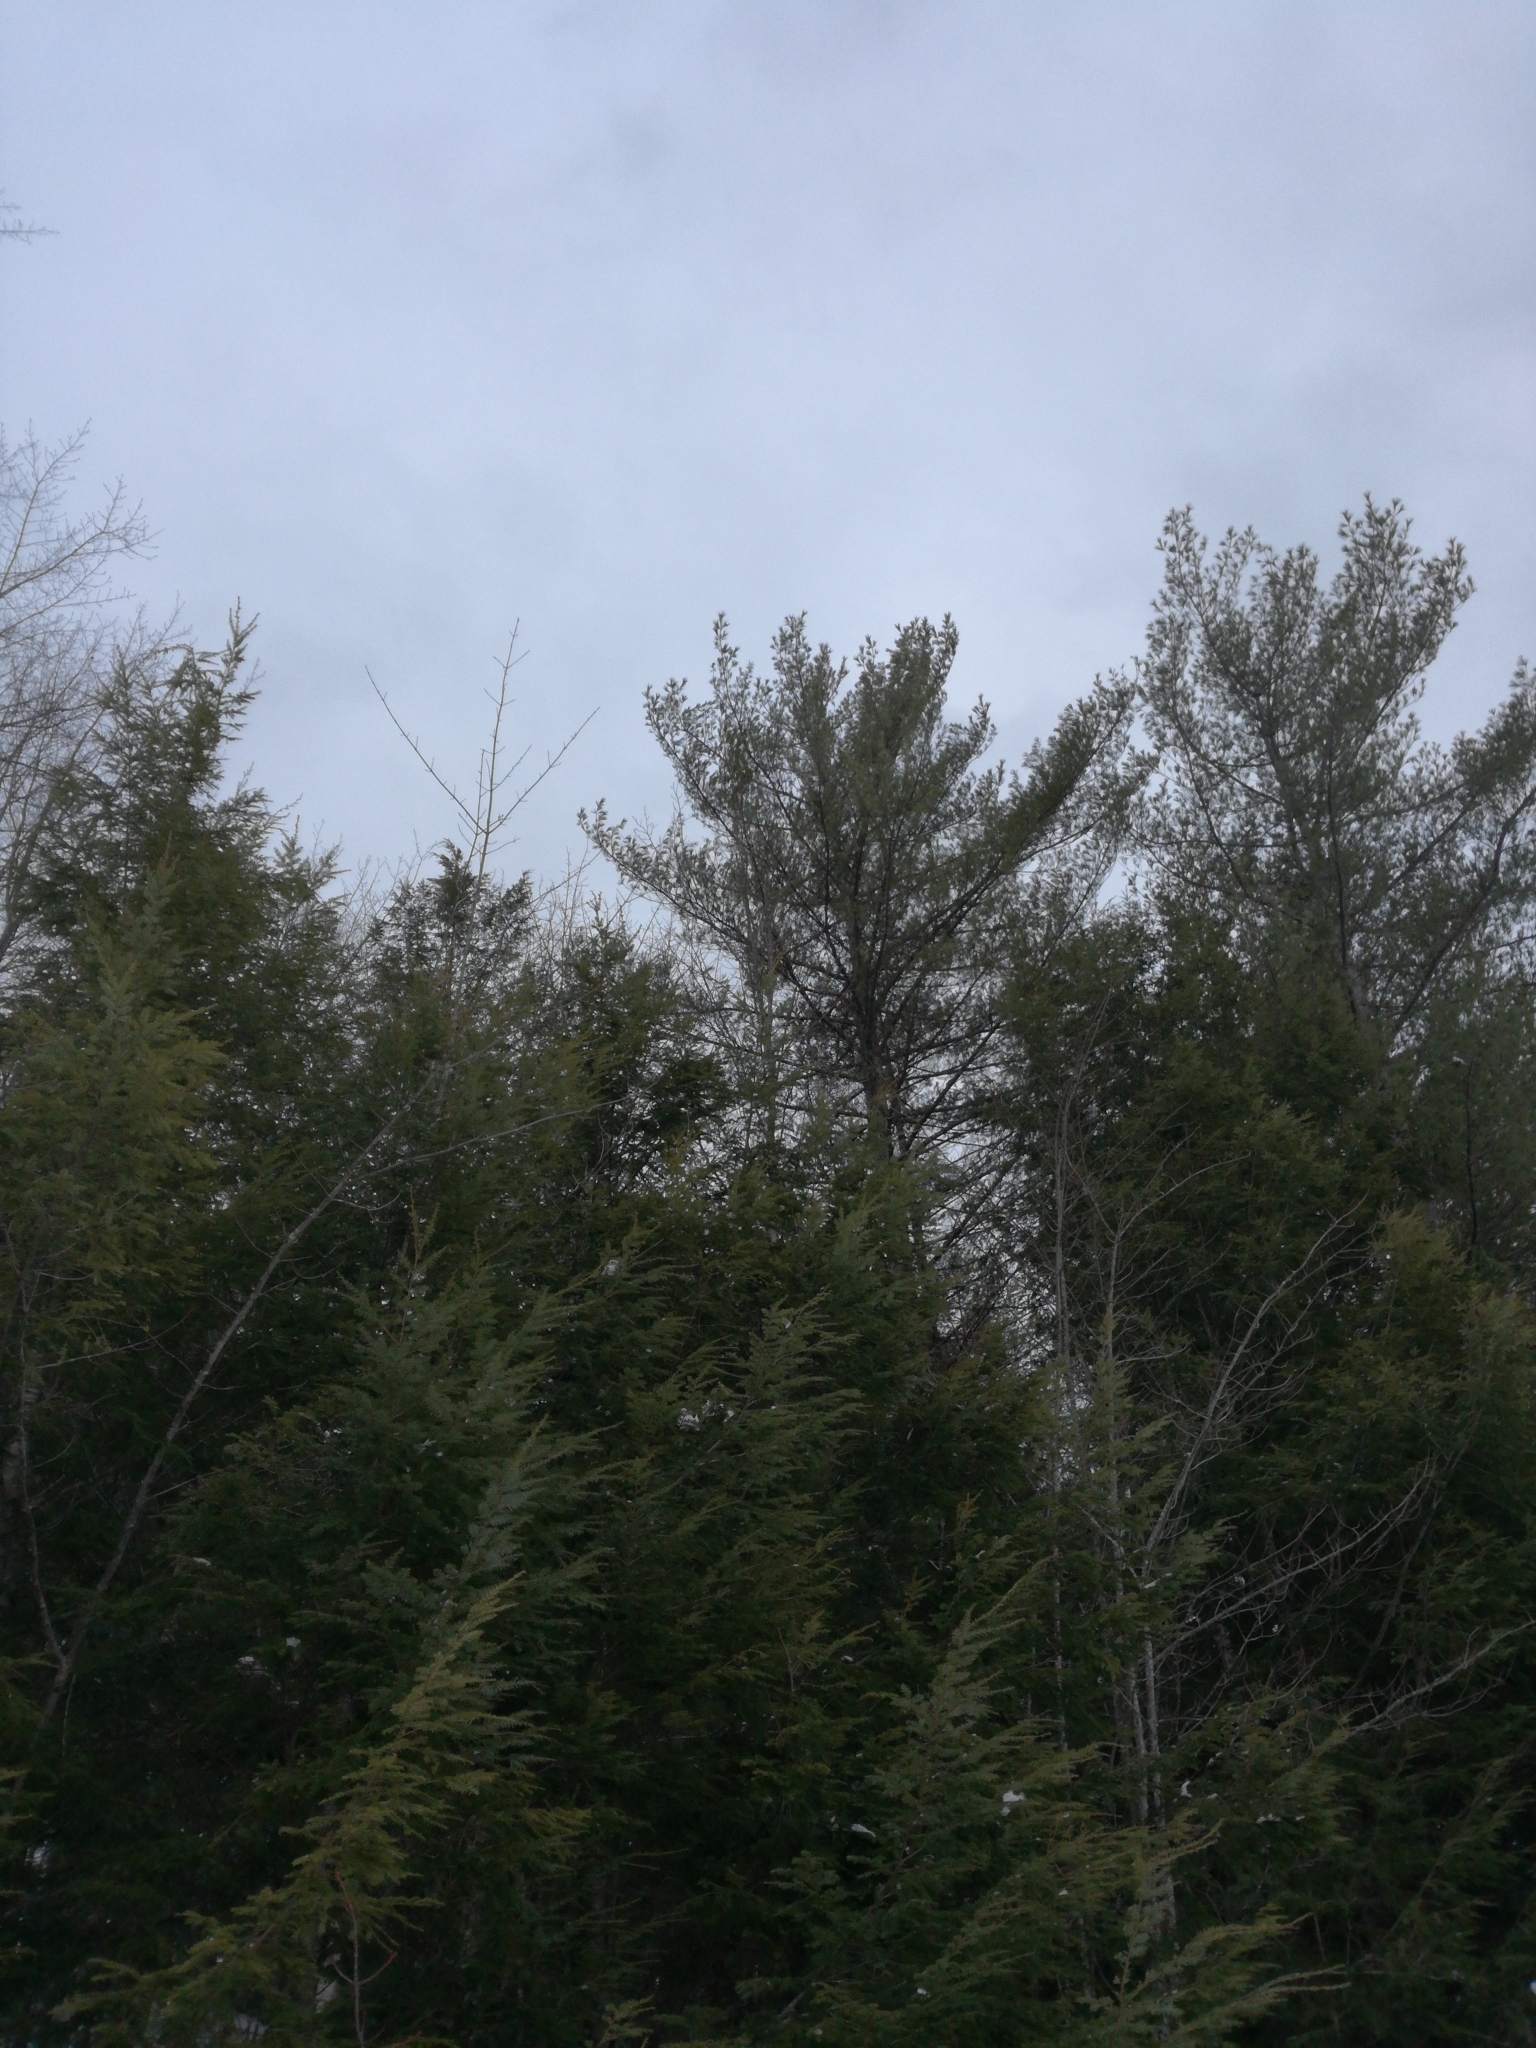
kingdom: Plantae
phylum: Tracheophyta
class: Pinopsida
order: Pinales
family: Pinaceae
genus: Pinus
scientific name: Pinus strobus
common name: Weymouth pine
